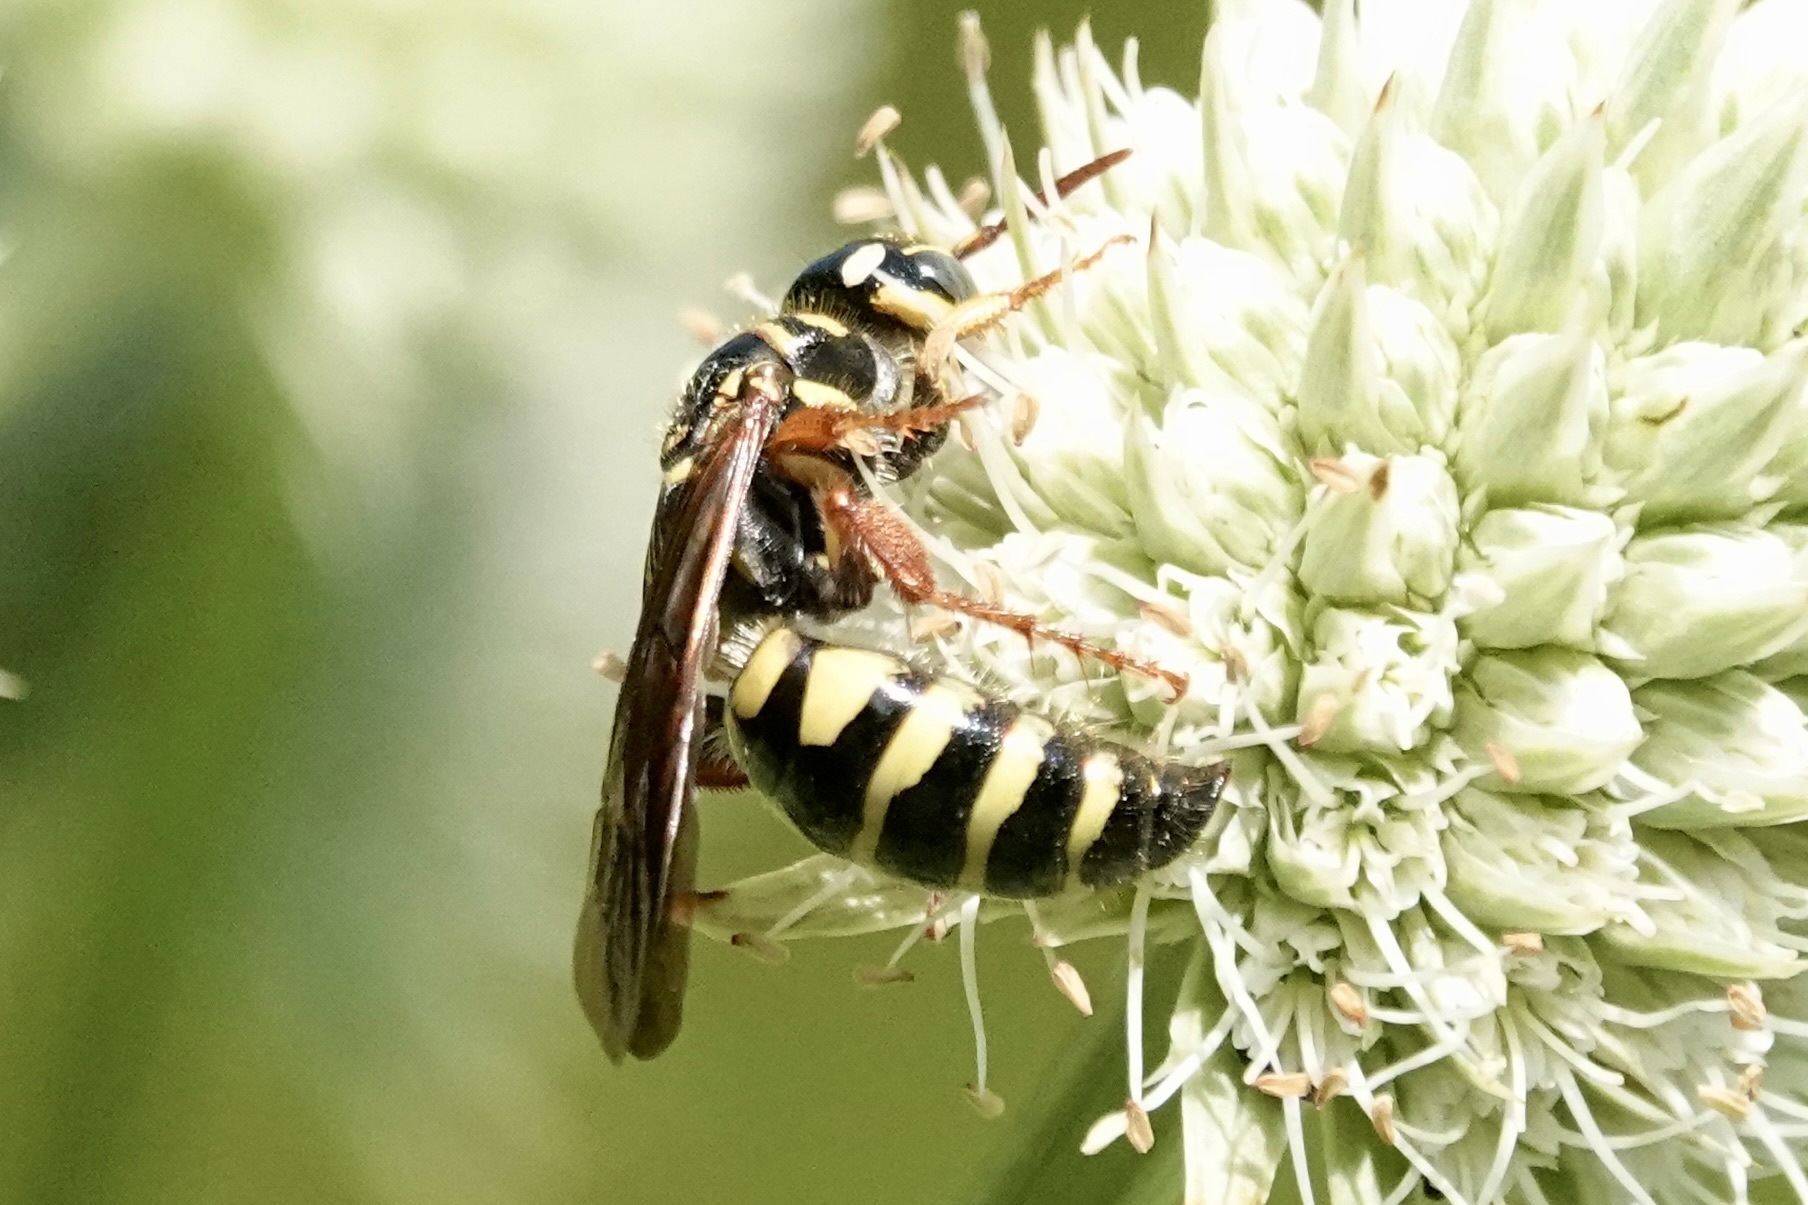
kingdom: Animalia
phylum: Arthropoda
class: Insecta
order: Hymenoptera
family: Tiphiidae
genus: Myzinum
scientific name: Myzinum quinquecinctum
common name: Five-banded thynnid wasp
